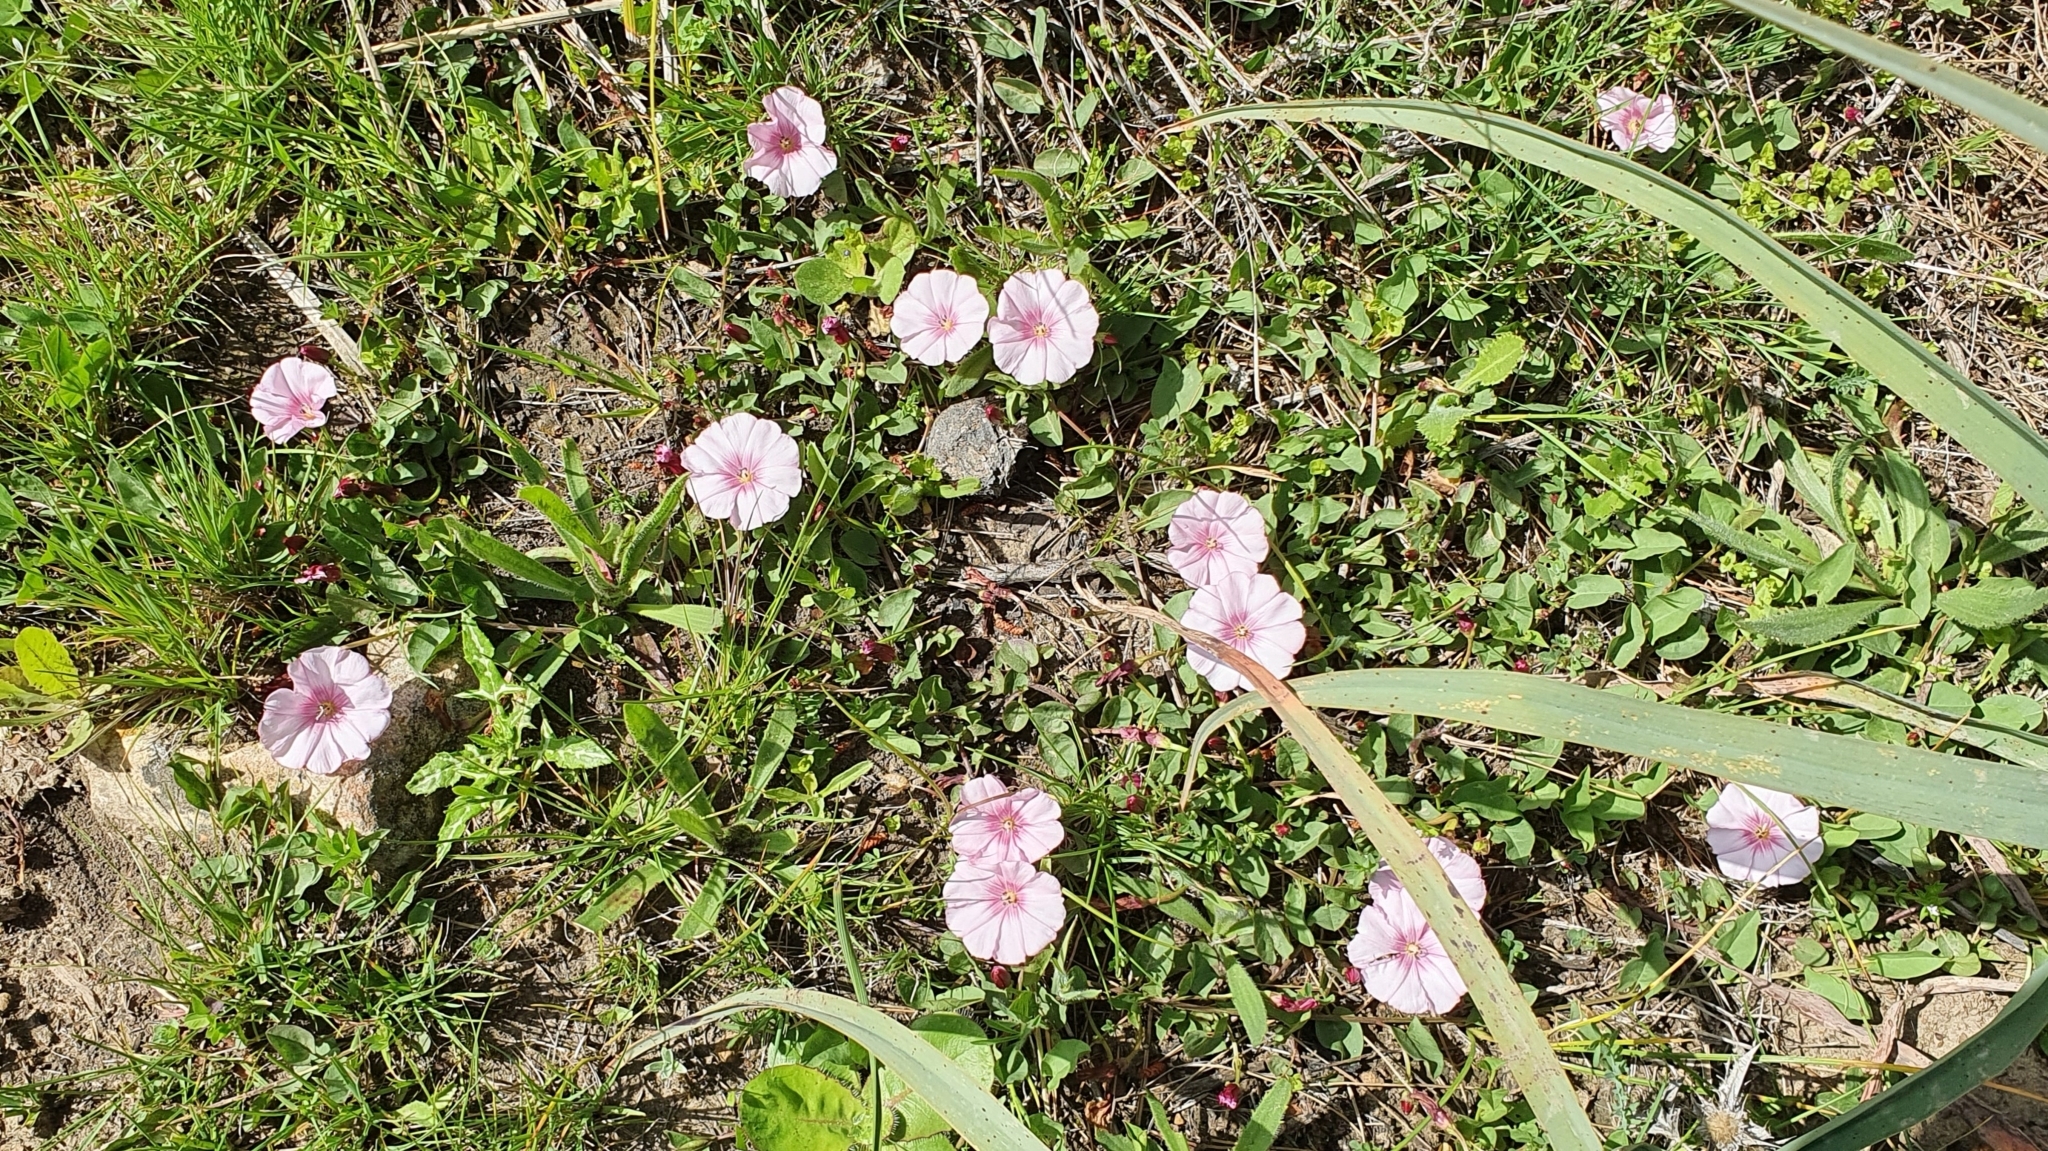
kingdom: Plantae
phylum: Tracheophyta
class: Magnoliopsida
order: Solanales
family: Convolvulaceae
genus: Convolvulus
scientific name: Convolvulus durandoi
